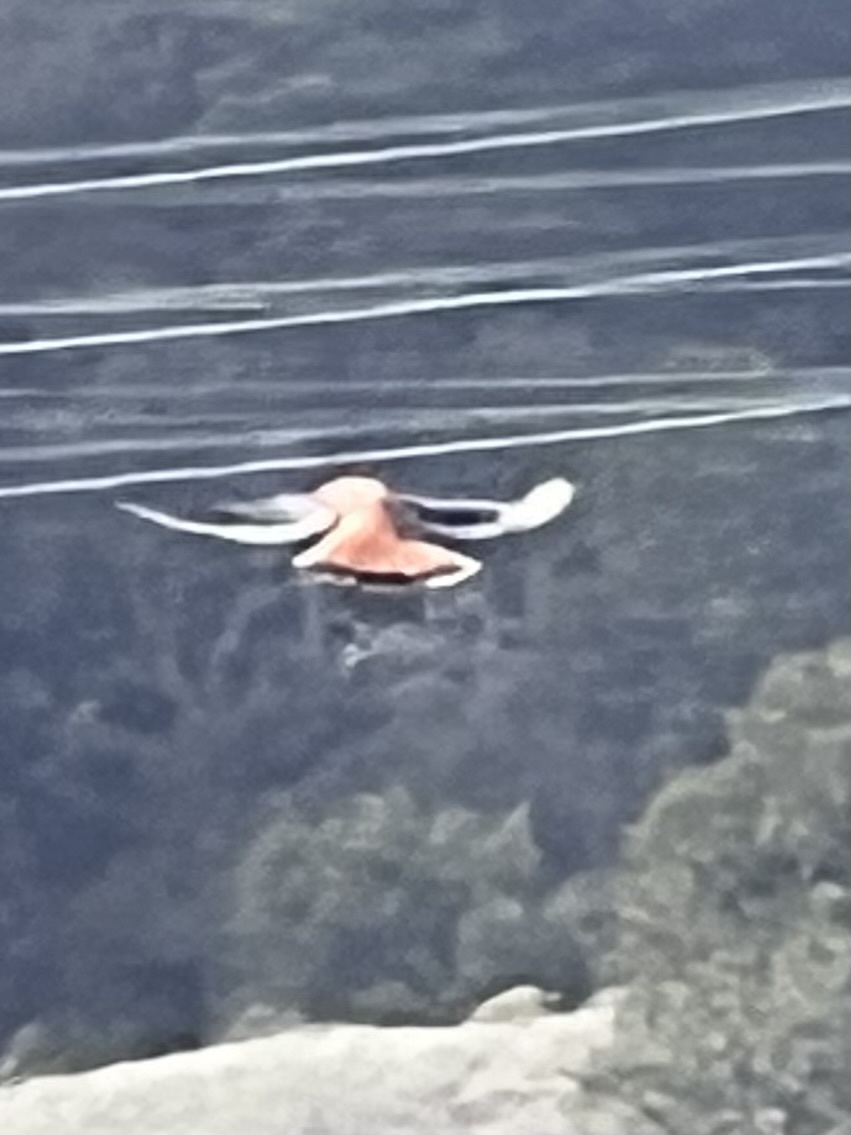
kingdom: Animalia
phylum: Chordata
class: Aves
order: Falconiformes
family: Falconidae
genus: Falco
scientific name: Falco sparverius
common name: American kestrel
